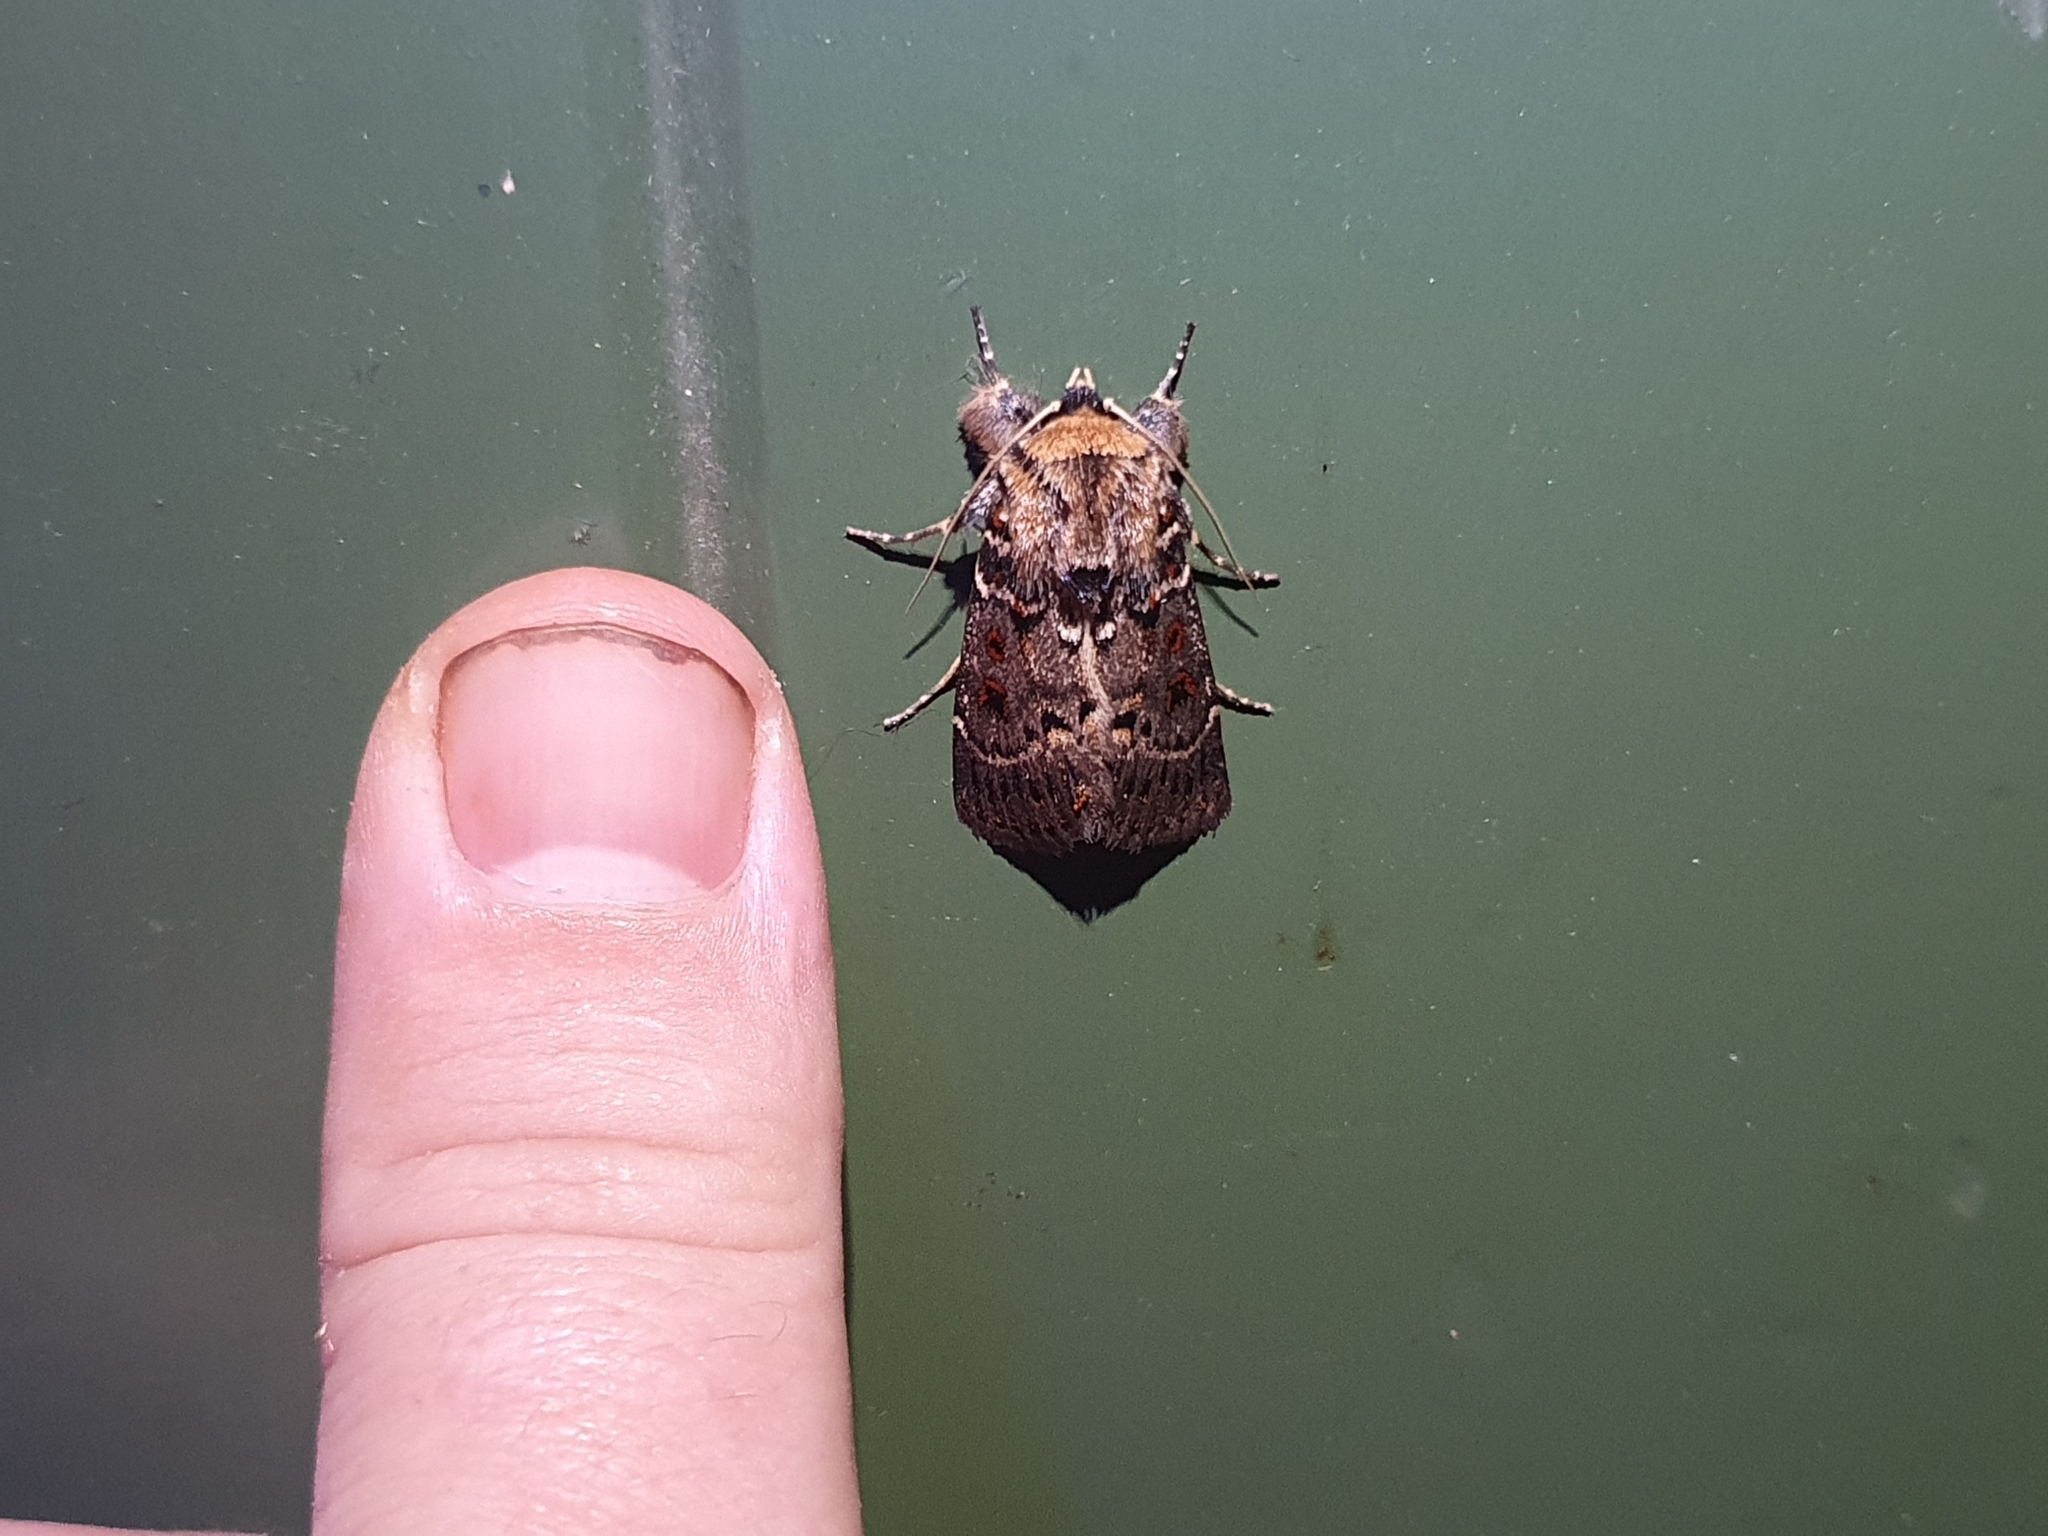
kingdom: Animalia
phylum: Arthropoda
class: Insecta
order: Lepidoptera
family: Noctuidae
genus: Proteuxoa
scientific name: Proteuxoa sanguinipuncta
